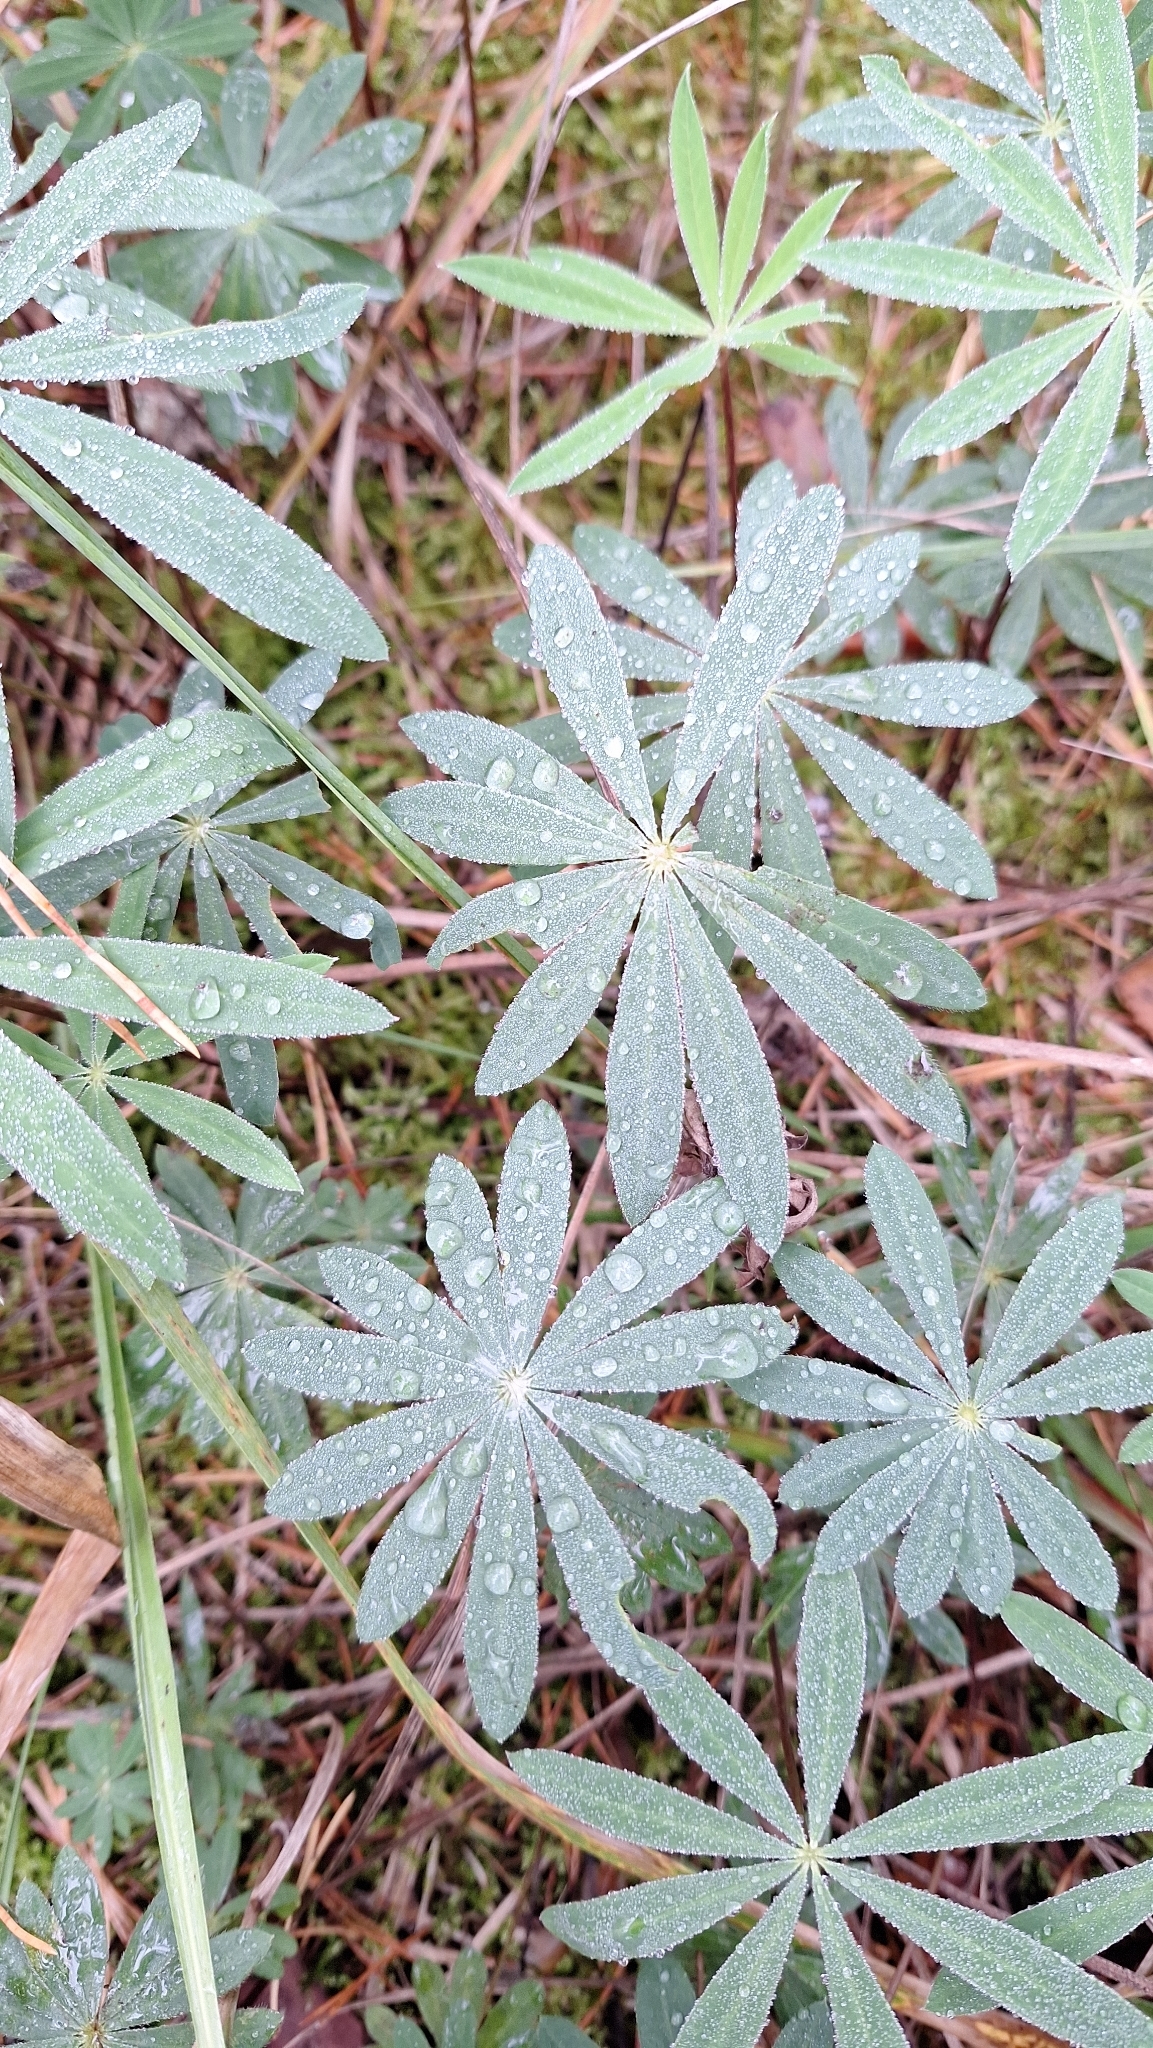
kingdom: Plantae
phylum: Tracheophyta
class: Magnoliopsida
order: Fabales
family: Fabaceae
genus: Lupinus
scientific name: Lupinus polyphyllus
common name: Garden lupin
